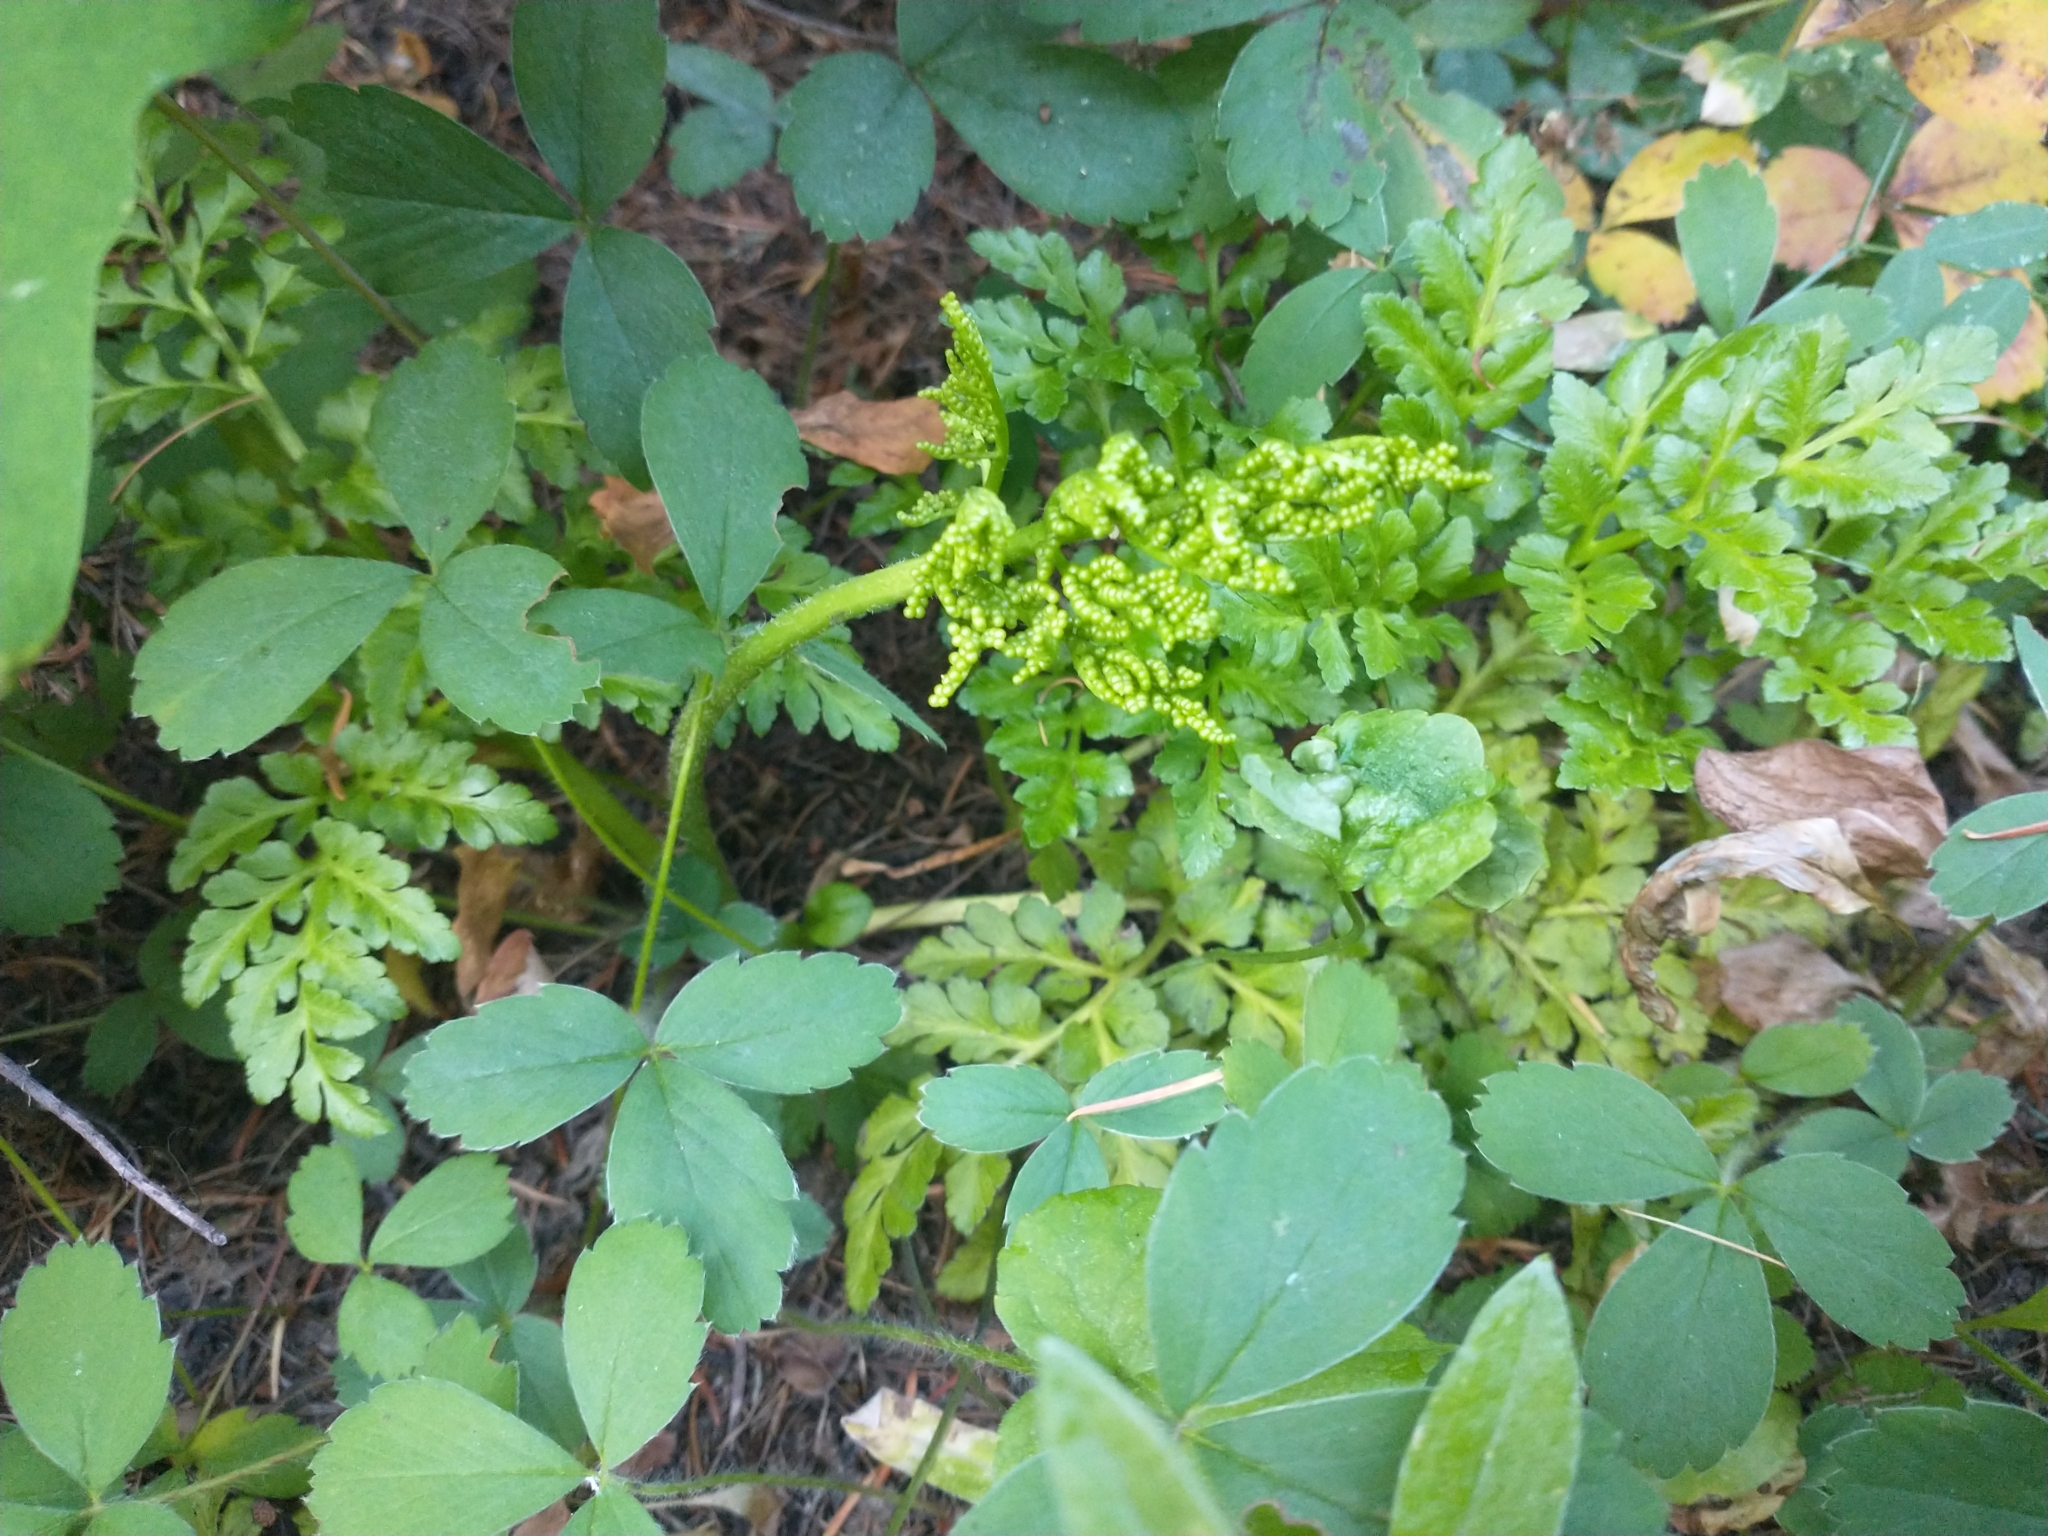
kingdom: Plantae
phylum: Tracheophyta
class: Magnoliopsida
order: Rosales
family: Rosaceae
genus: Fragaria
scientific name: Fragaria virginiana
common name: Thickleaved wild strawberry
